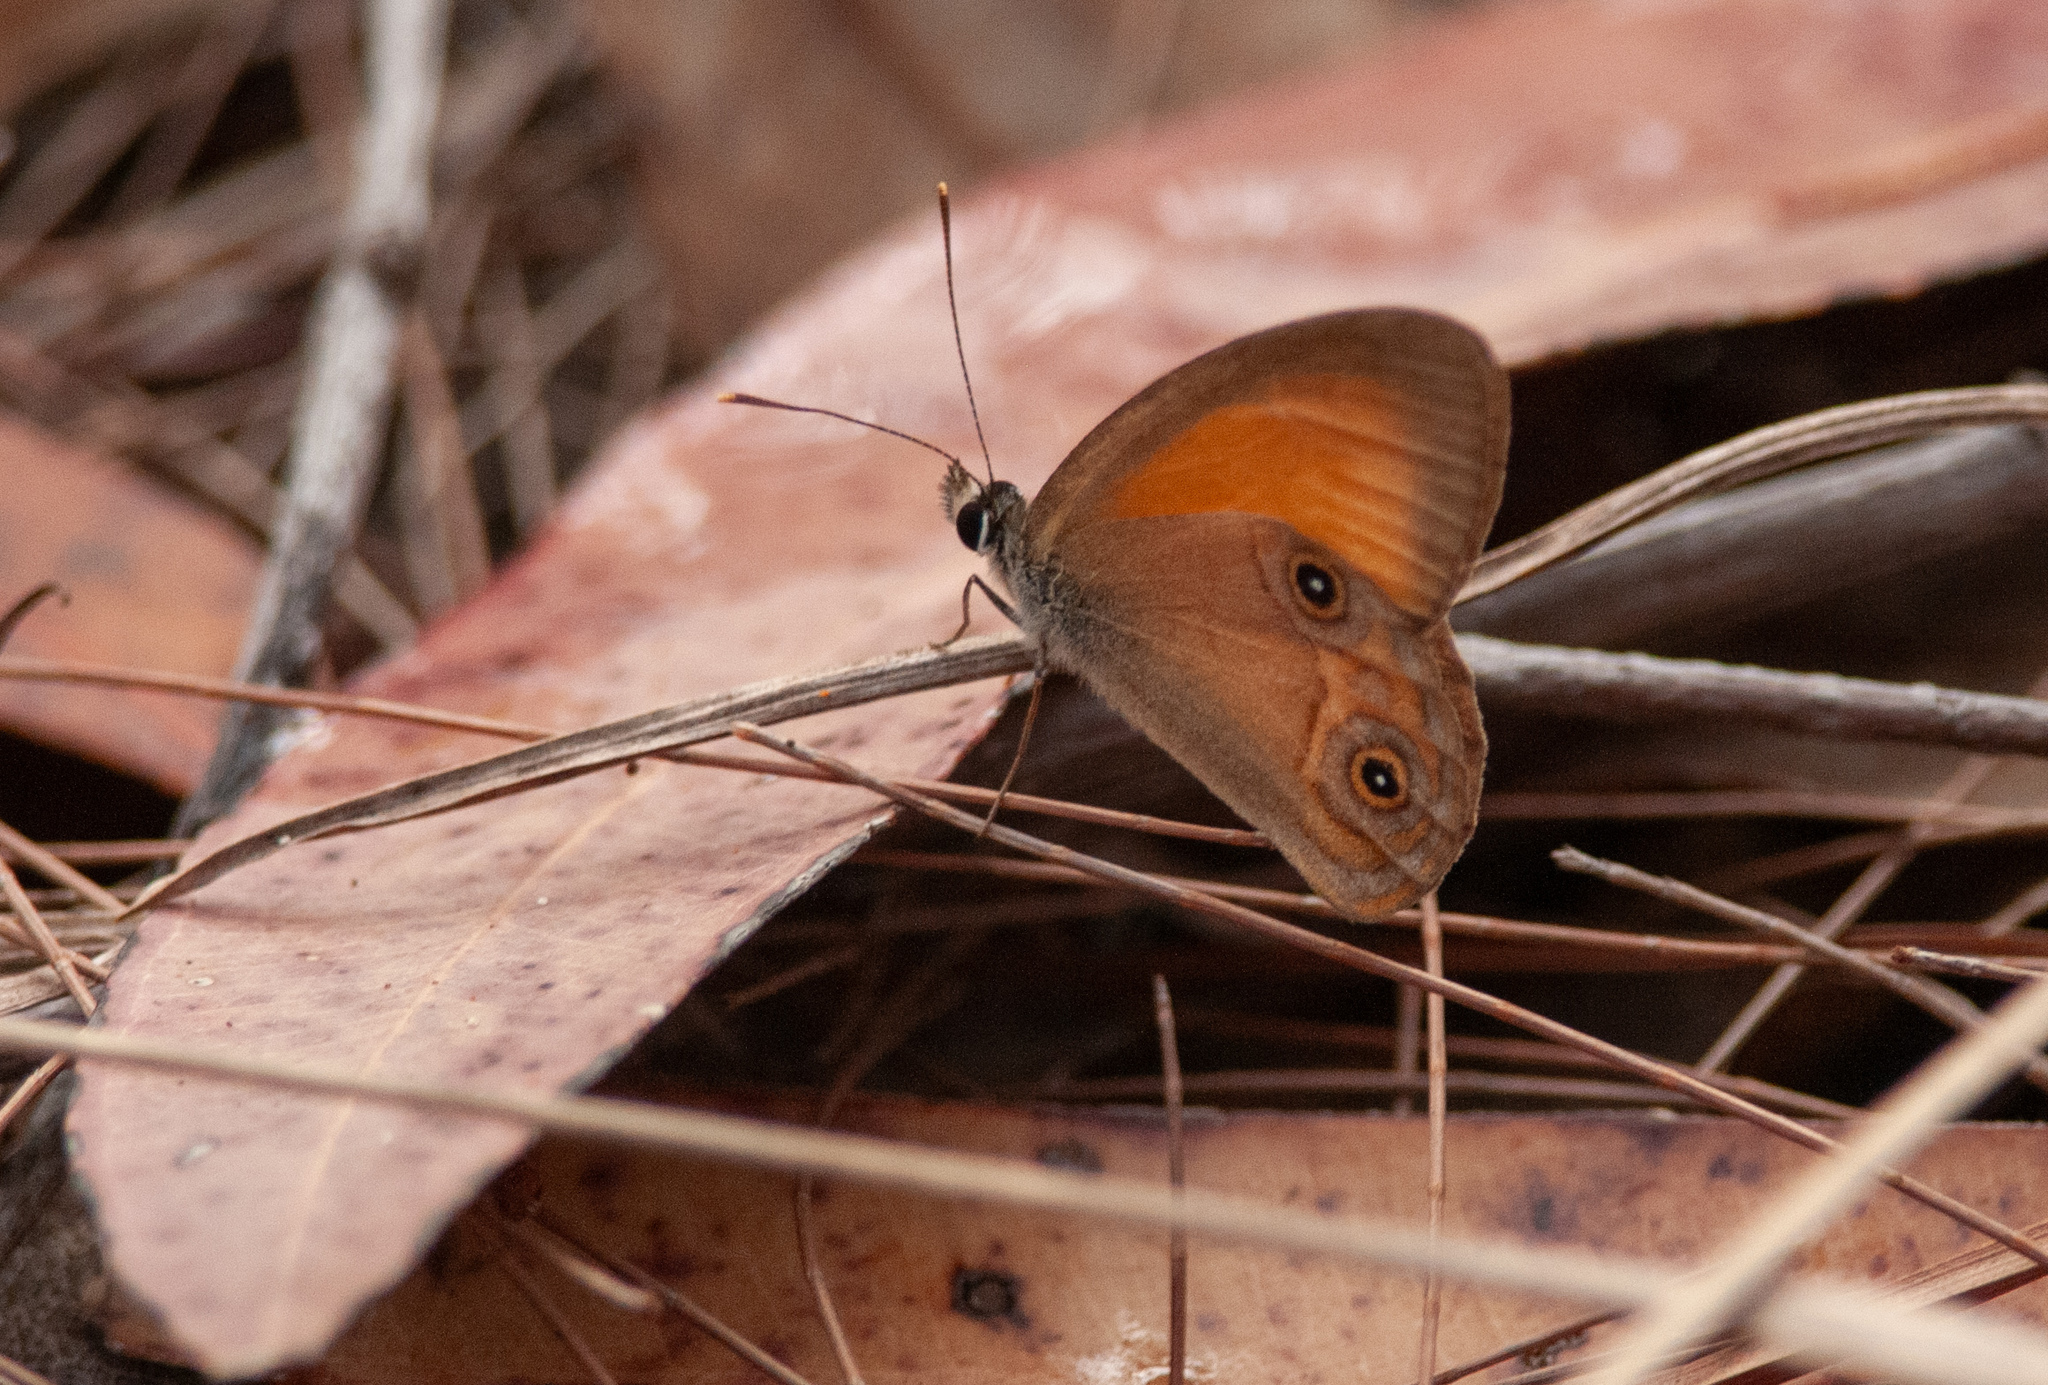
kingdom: Animalia
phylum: Arthropoda
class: Insecta
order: Lepidoptera
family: Nymphalidae
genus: Hypocysta
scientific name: Hypocysta adiante
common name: Orange ringlet
